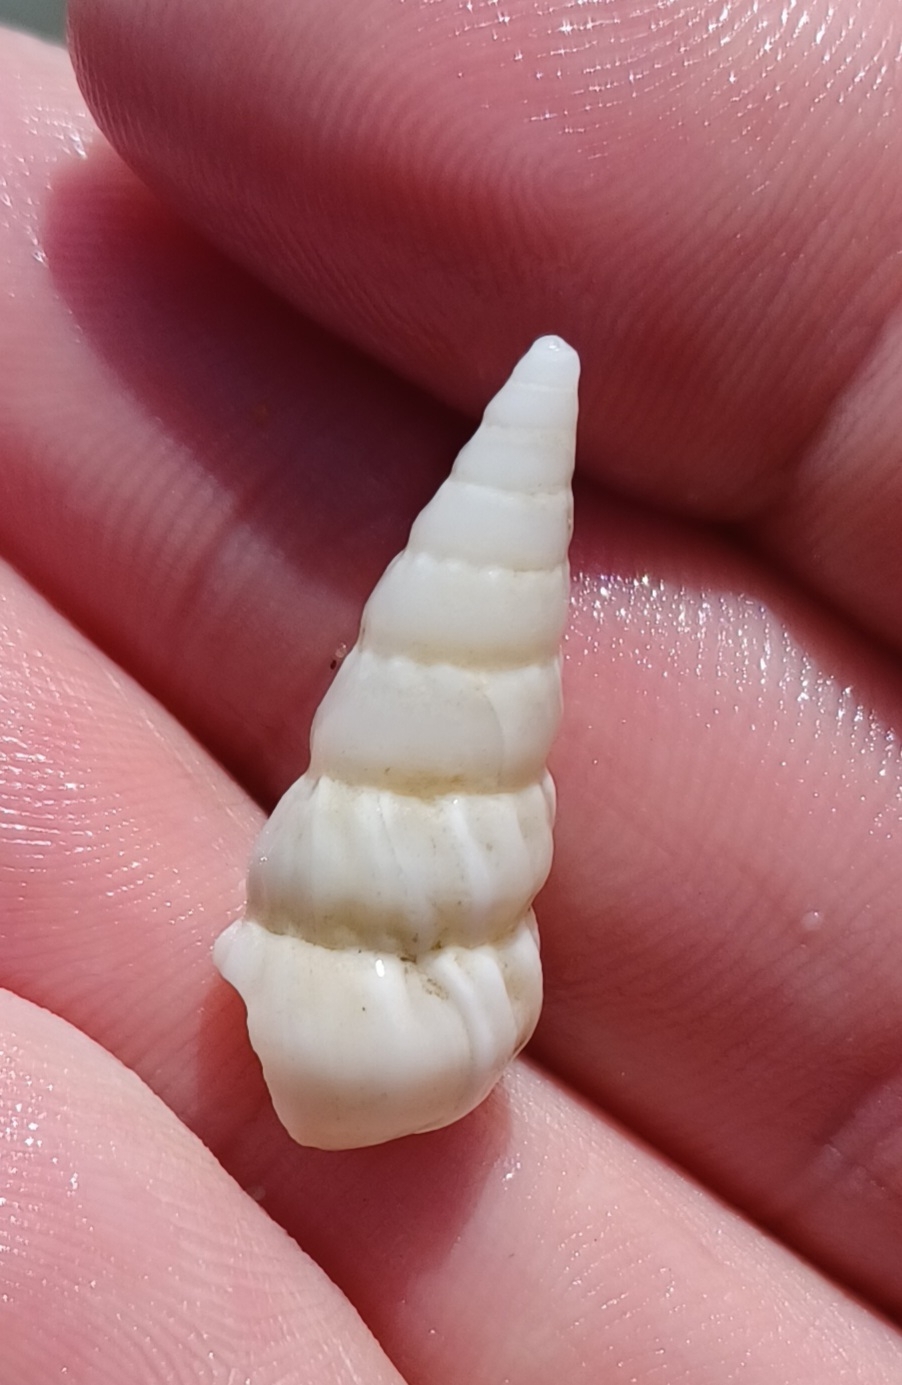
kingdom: Animalia
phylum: Mollusca
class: Gastropoda
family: Epitoniidae
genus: Opalia
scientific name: Opalia granosa
